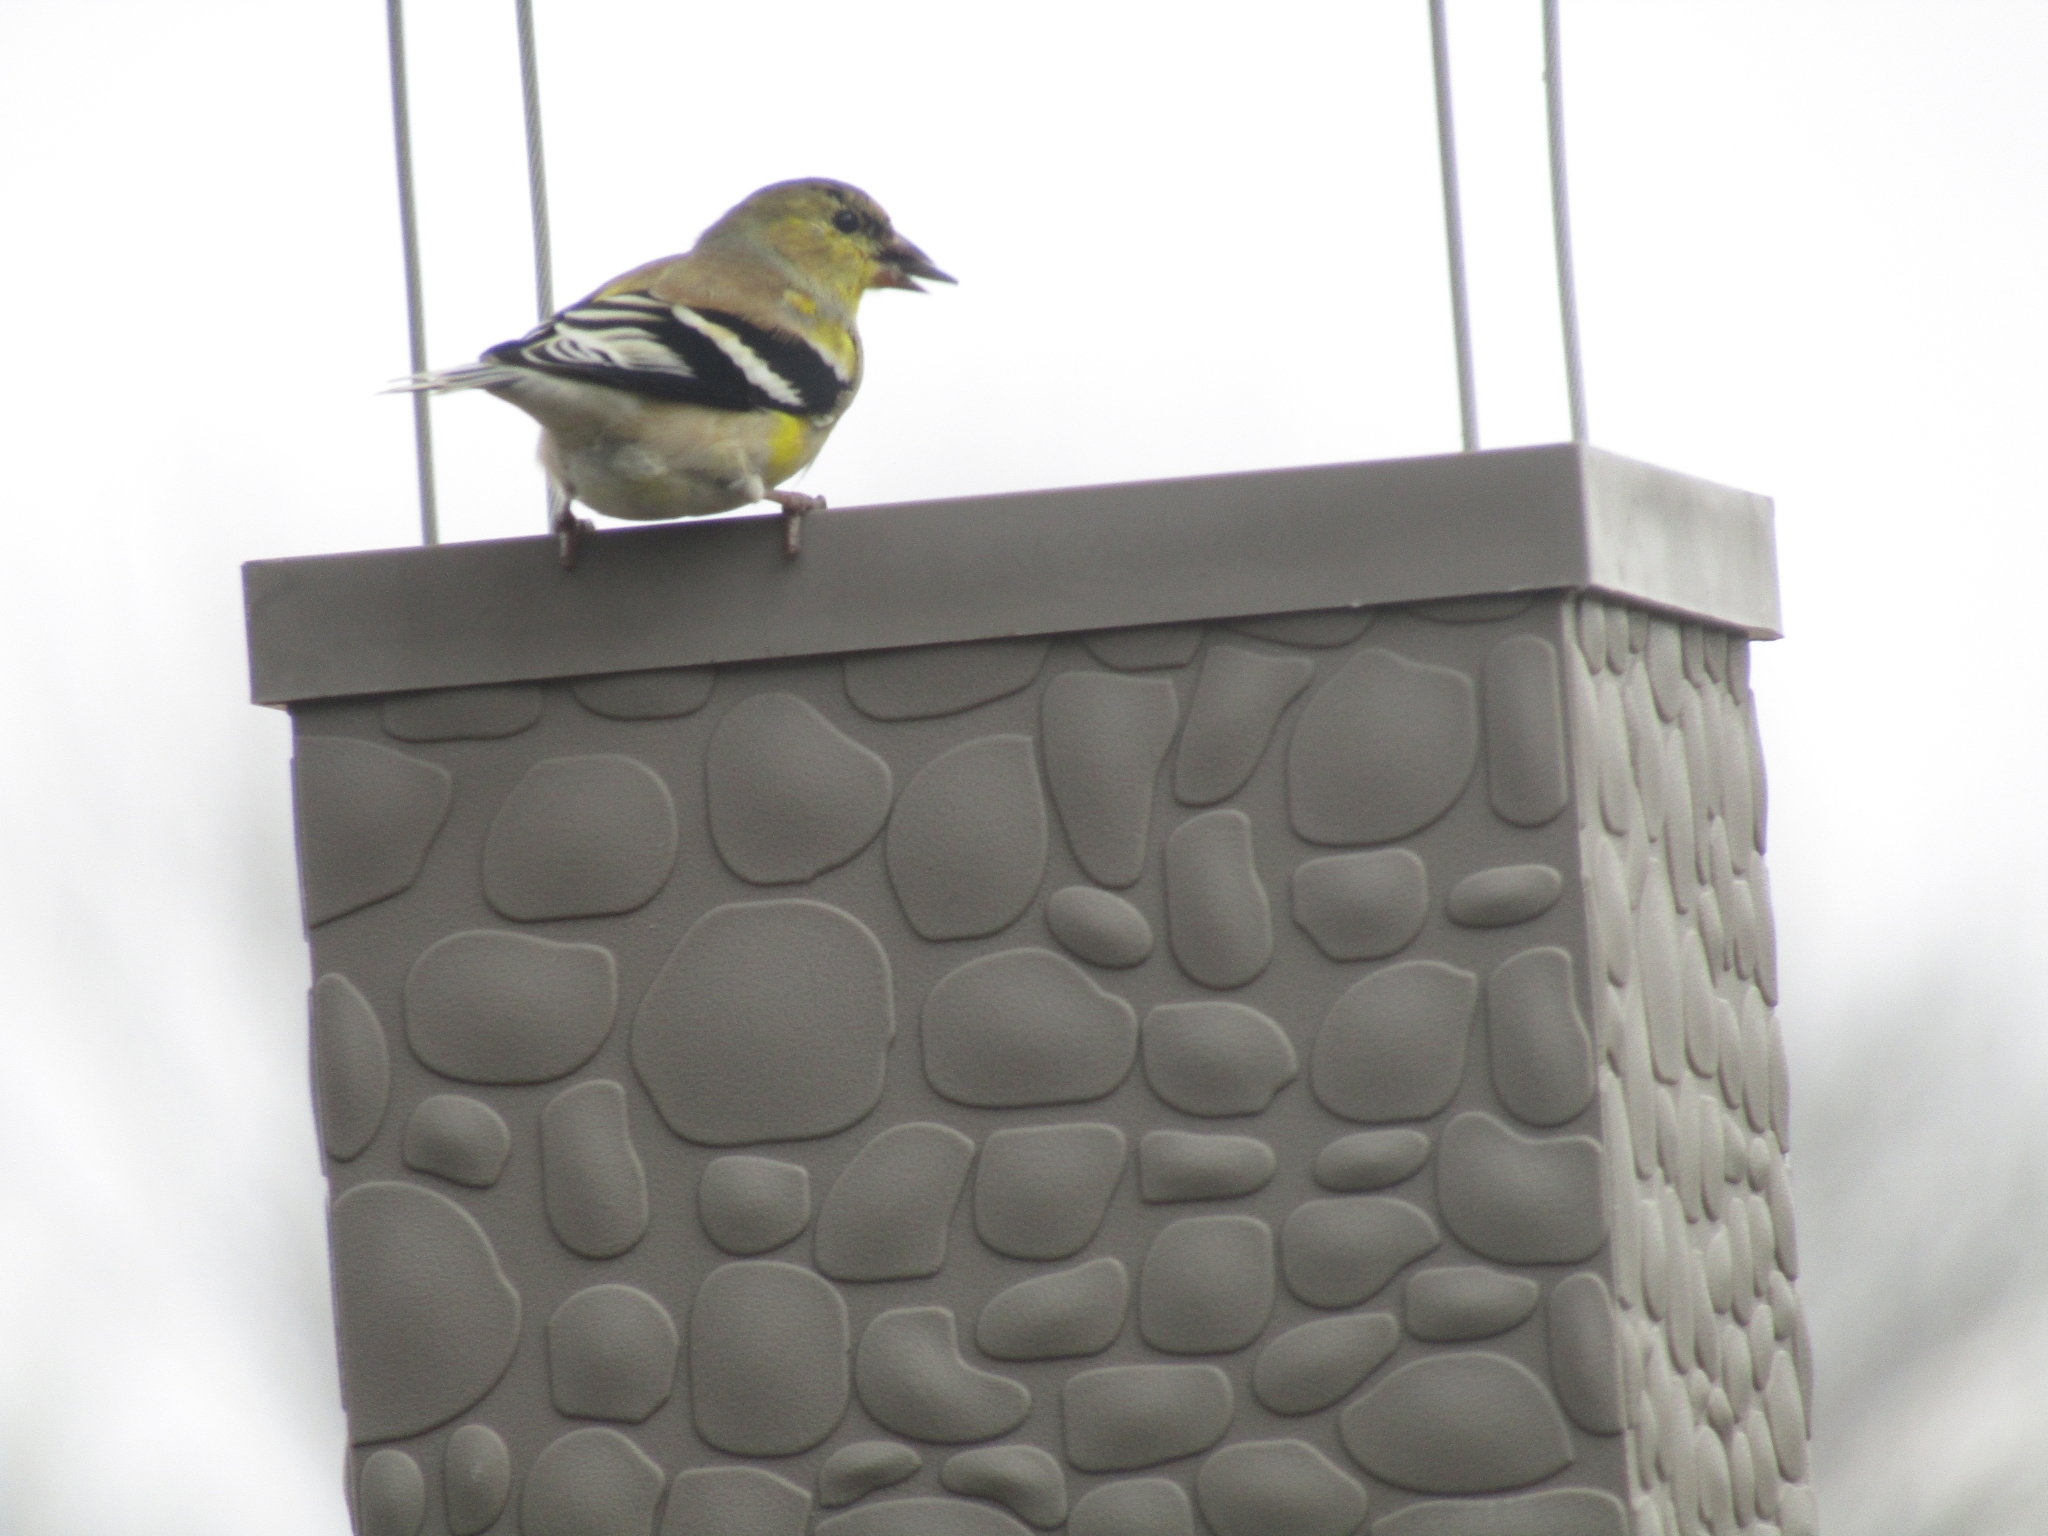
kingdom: Animalia
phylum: Chordata
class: Aves
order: Passeriformes
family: Fringillidae
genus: Spinus
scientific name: Spinus tristis
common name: American goldfinch
